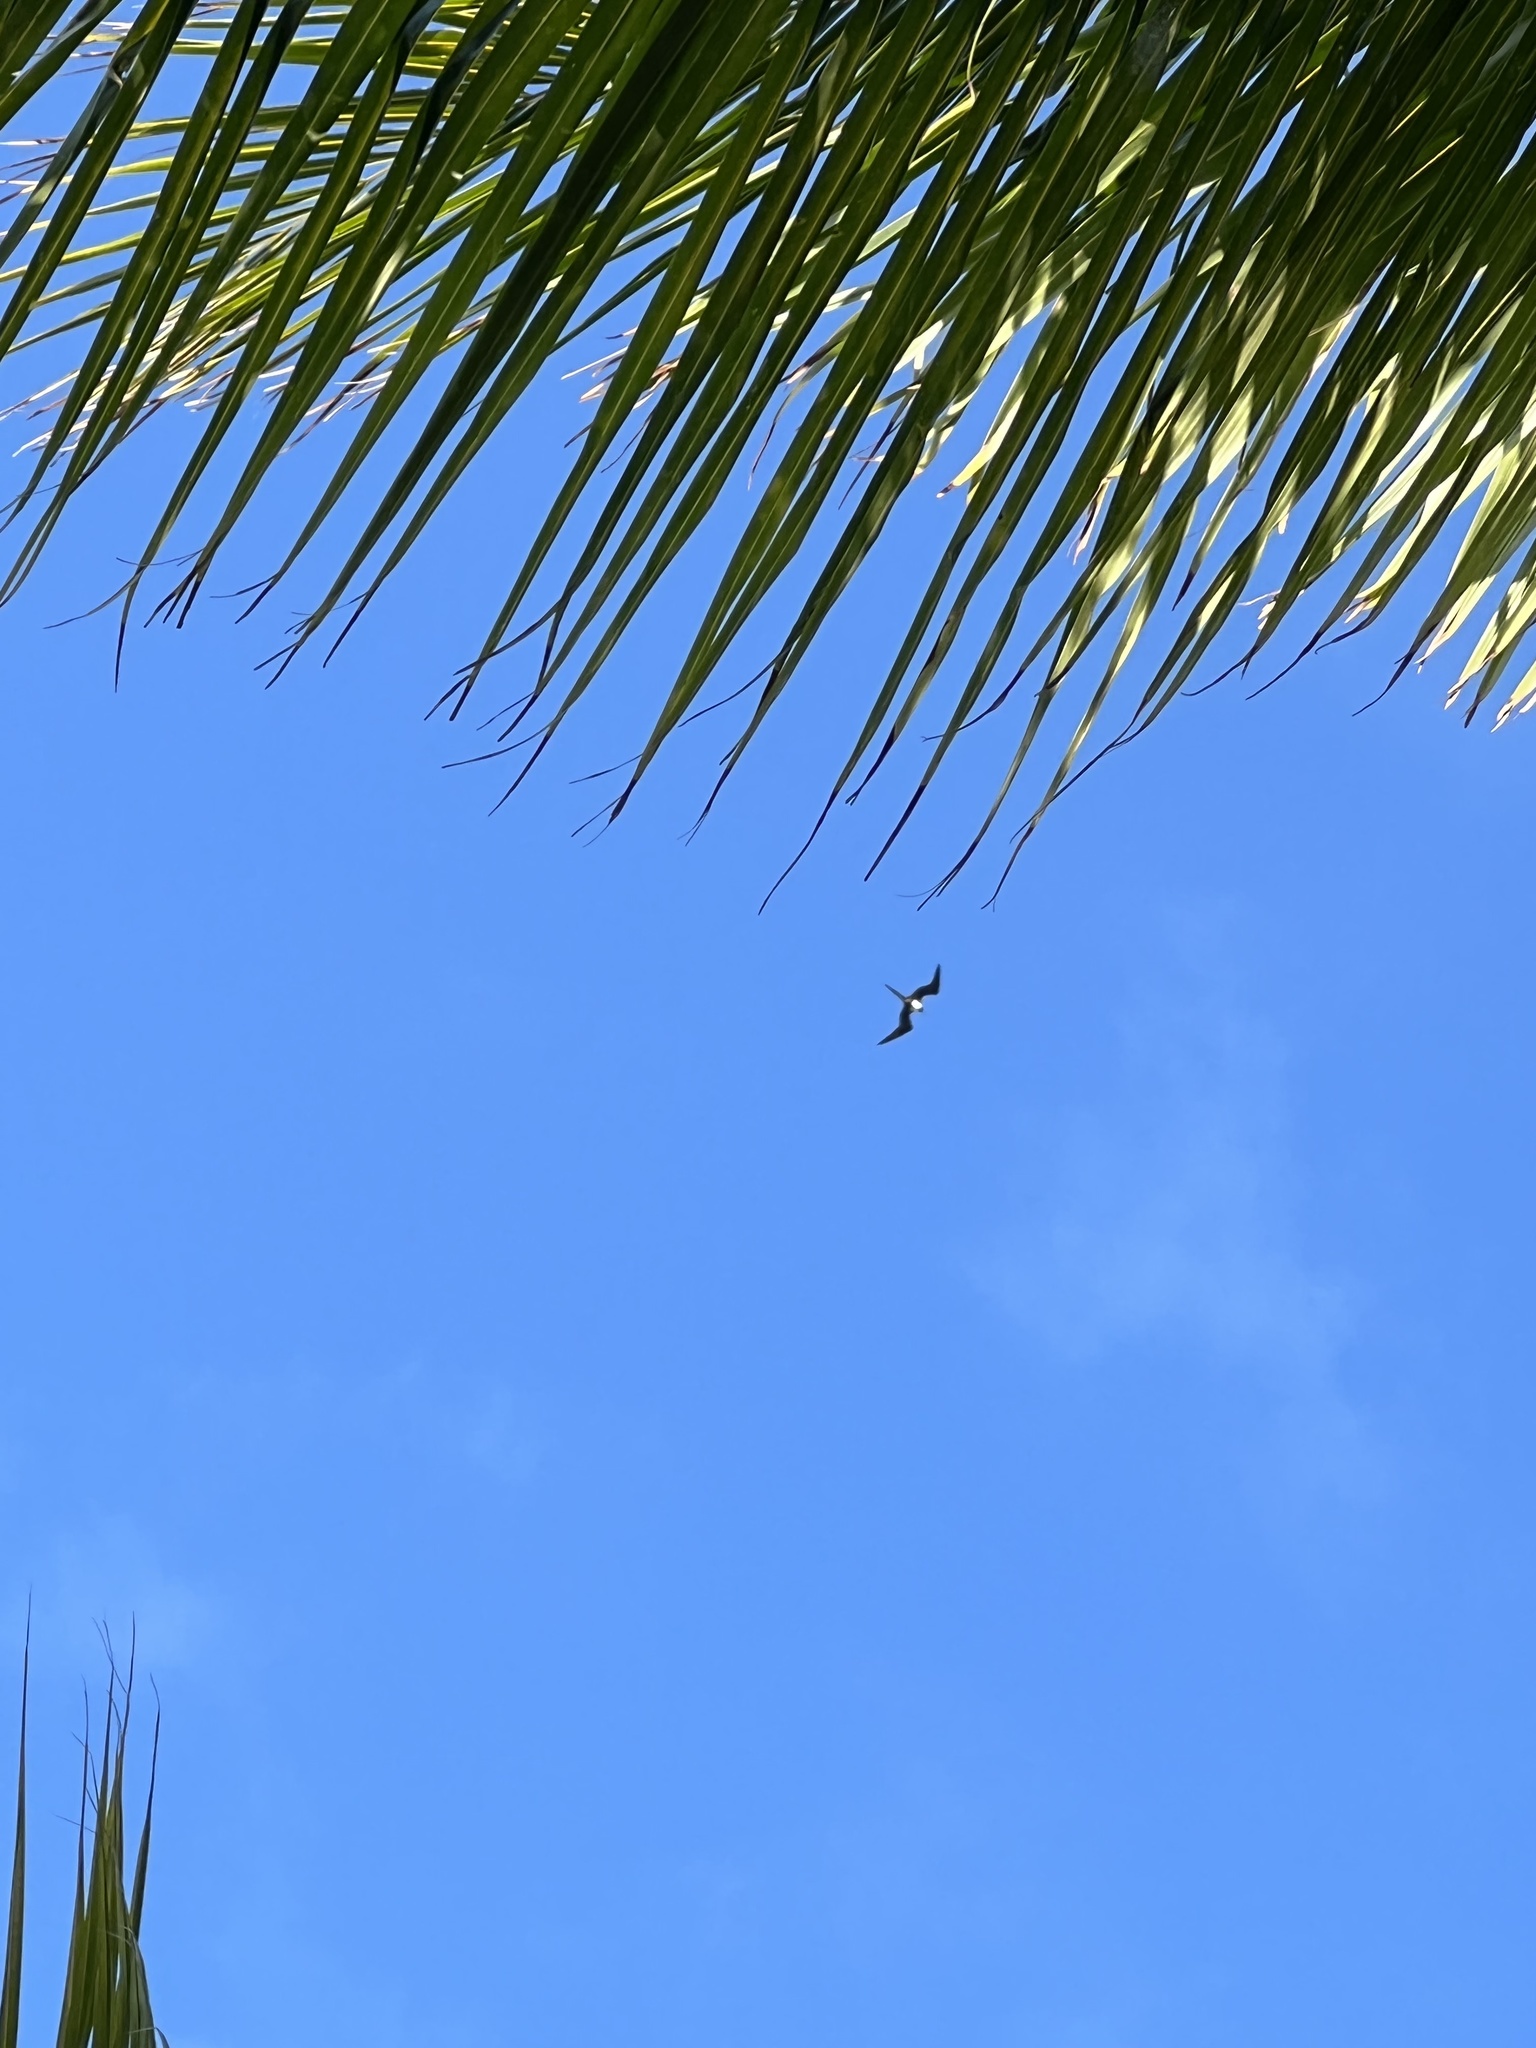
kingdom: Animalia
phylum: Chordata
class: Aves
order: Suliformes
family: Fregatidae
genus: Fregata
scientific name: Fregata magnificens
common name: Magnificent frigatebird
